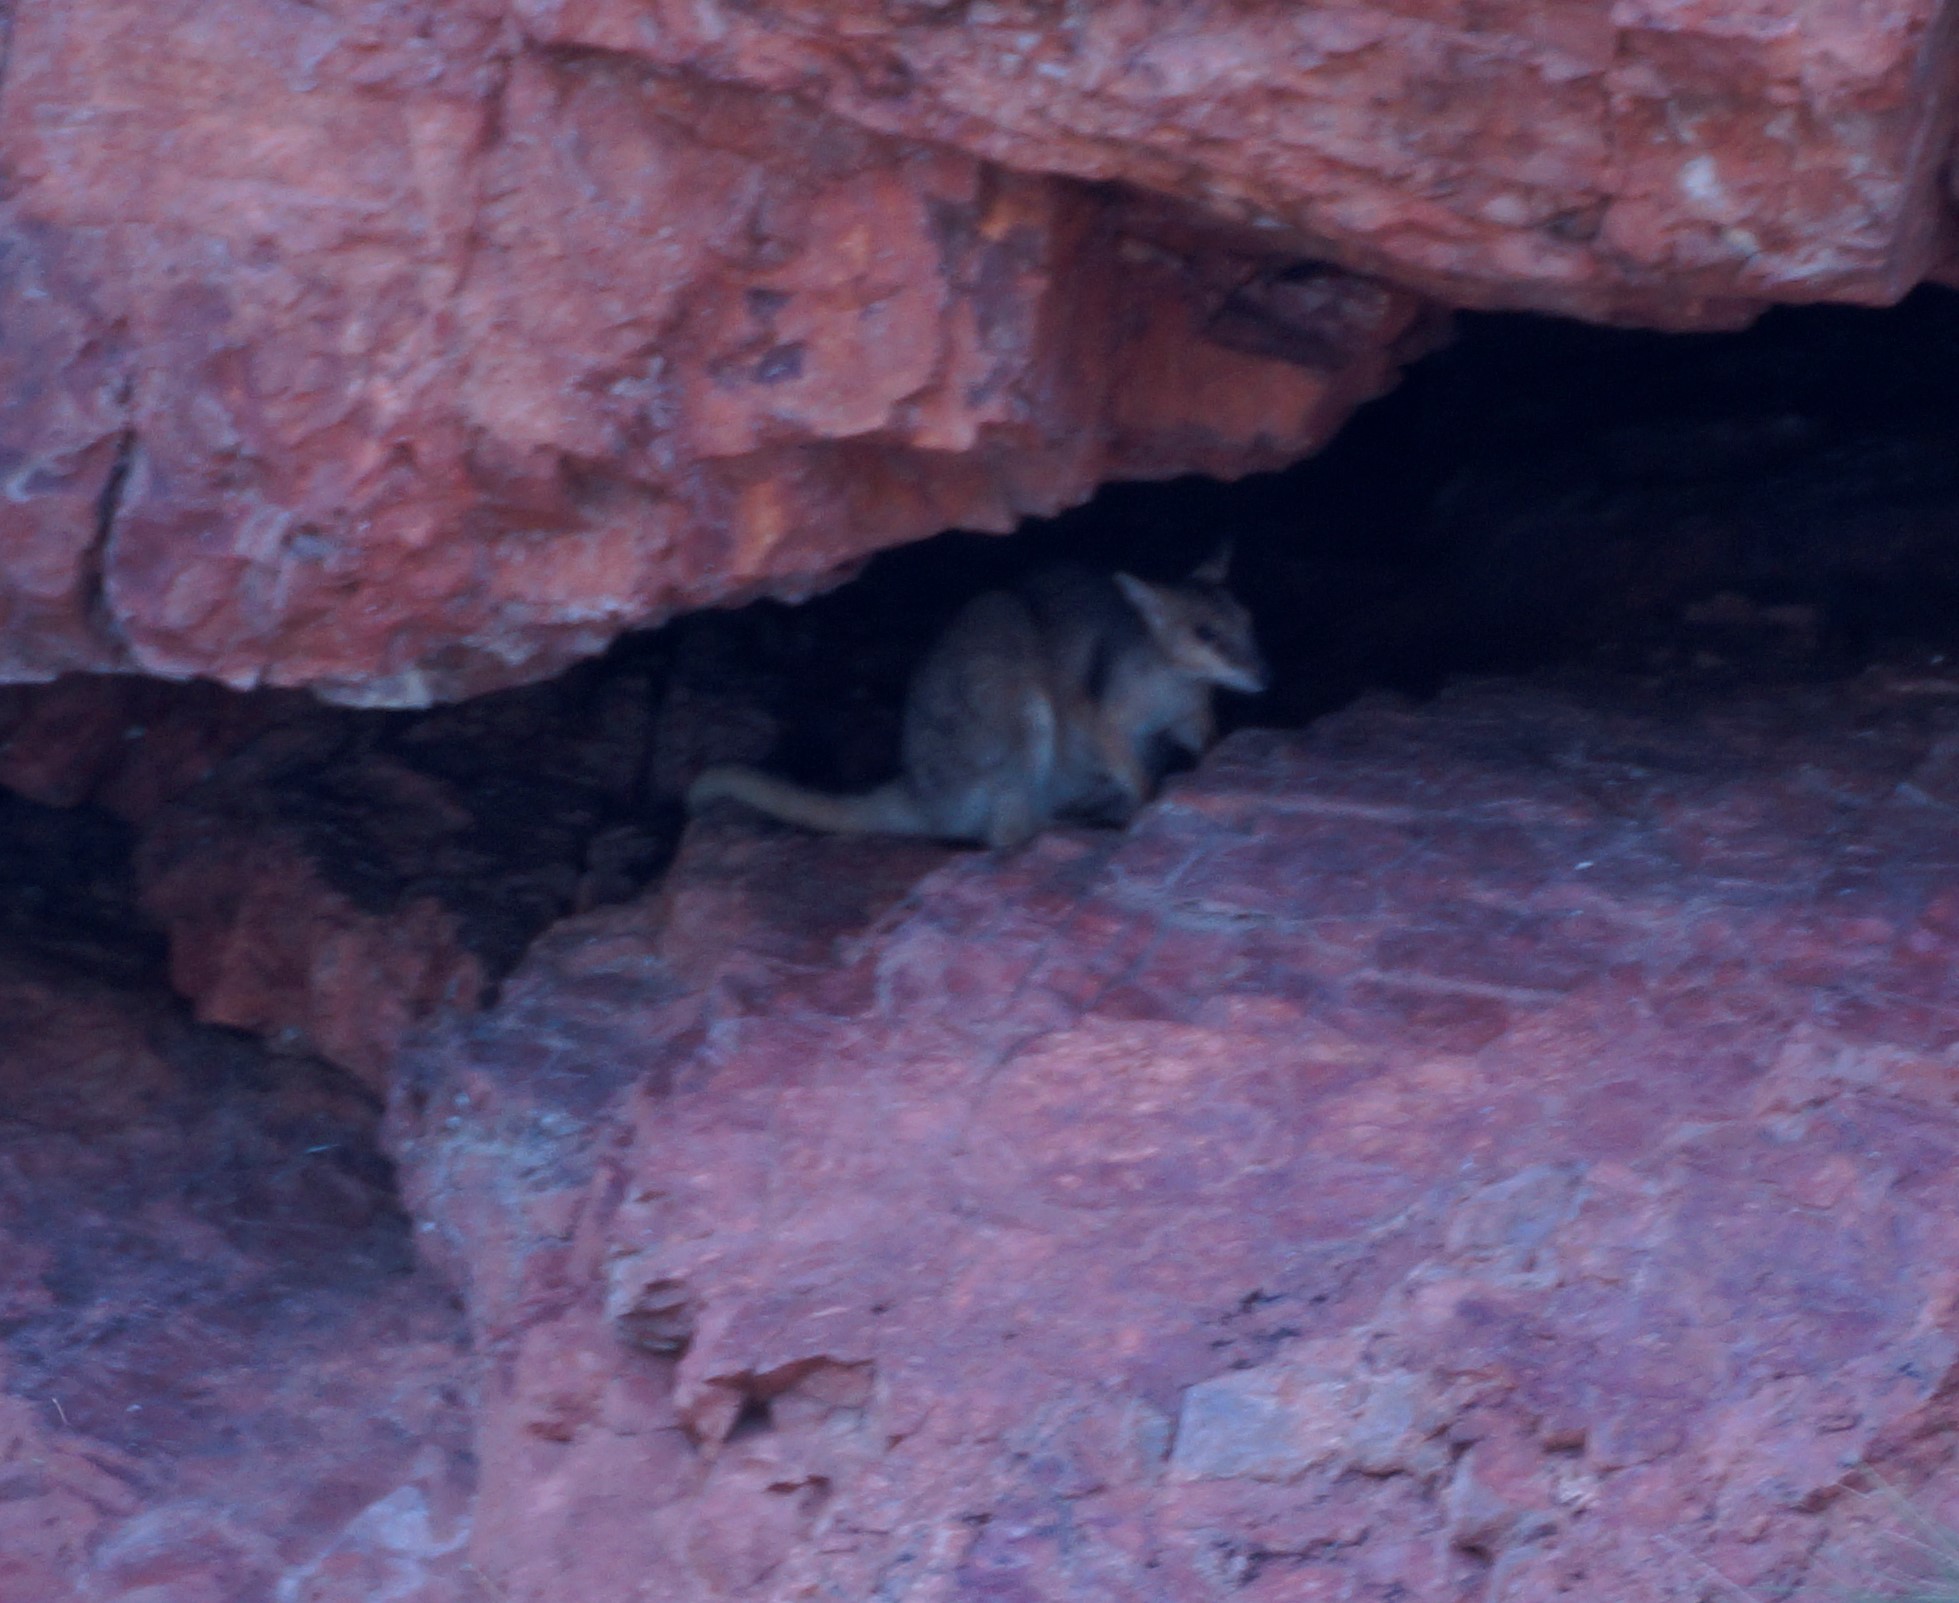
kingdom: Animalia
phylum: Chordata
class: Mammalia
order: Diprotodontia
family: Macropodidae
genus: Petrogale
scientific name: Petrogale brachyotis
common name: Short-eared rock-wallaby
